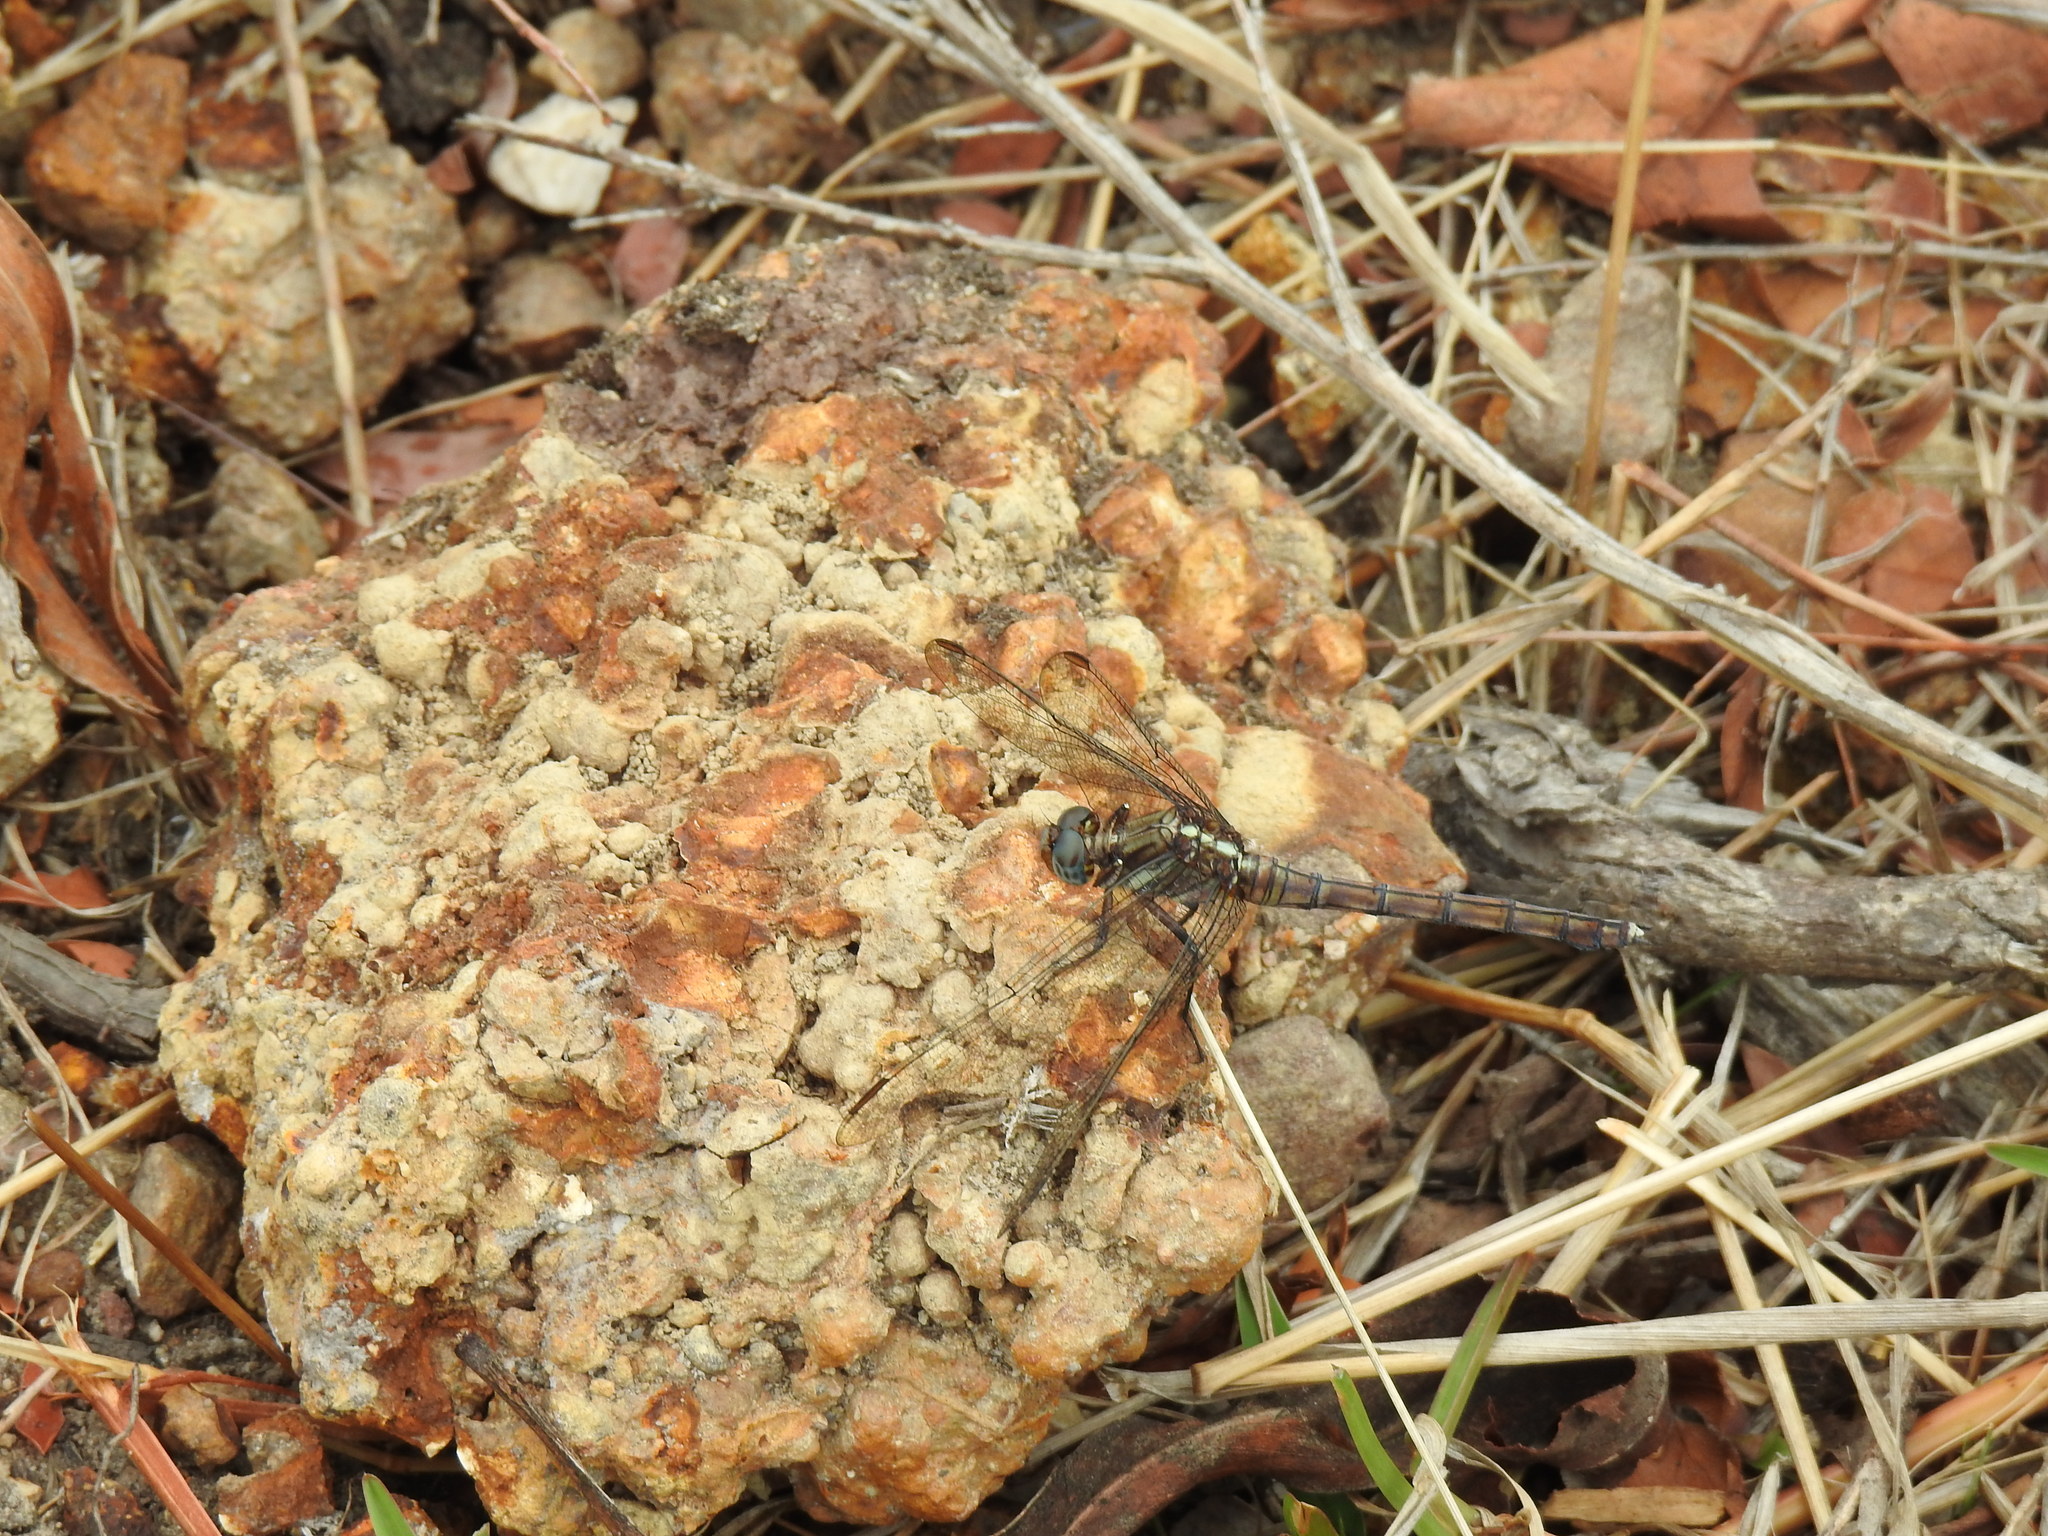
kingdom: Animalia
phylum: Arthropoda
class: Insecta
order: Odonata
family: Libellulidae
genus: Orthetrum
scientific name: Orthetrum julia
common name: Julia skimmer
